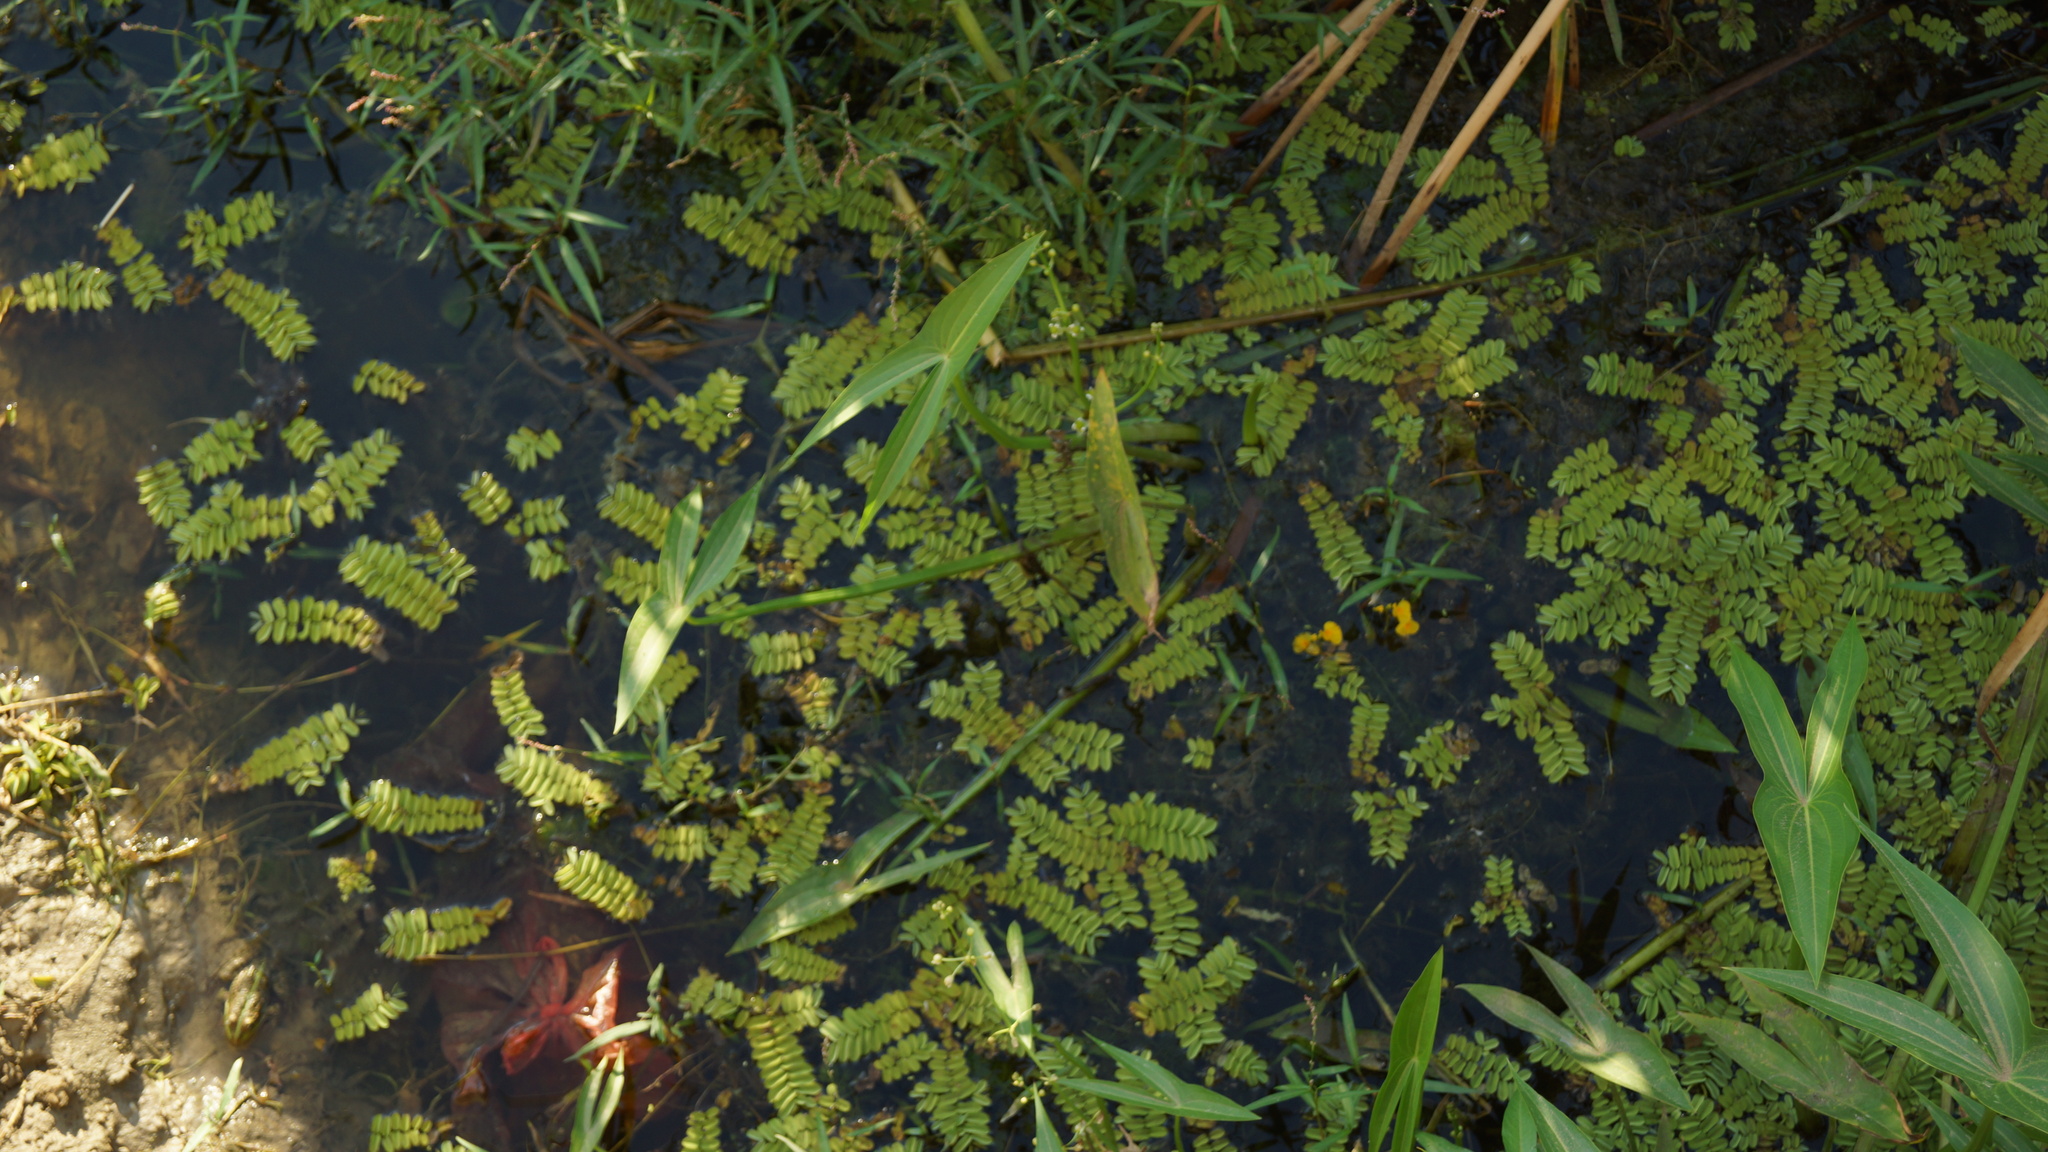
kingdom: Plantae
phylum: Tracheophyta
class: Polypodiopsida
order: Salviniales
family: Salviniaceae
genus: Salvinia
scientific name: Salvinia natans
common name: Floating fern
